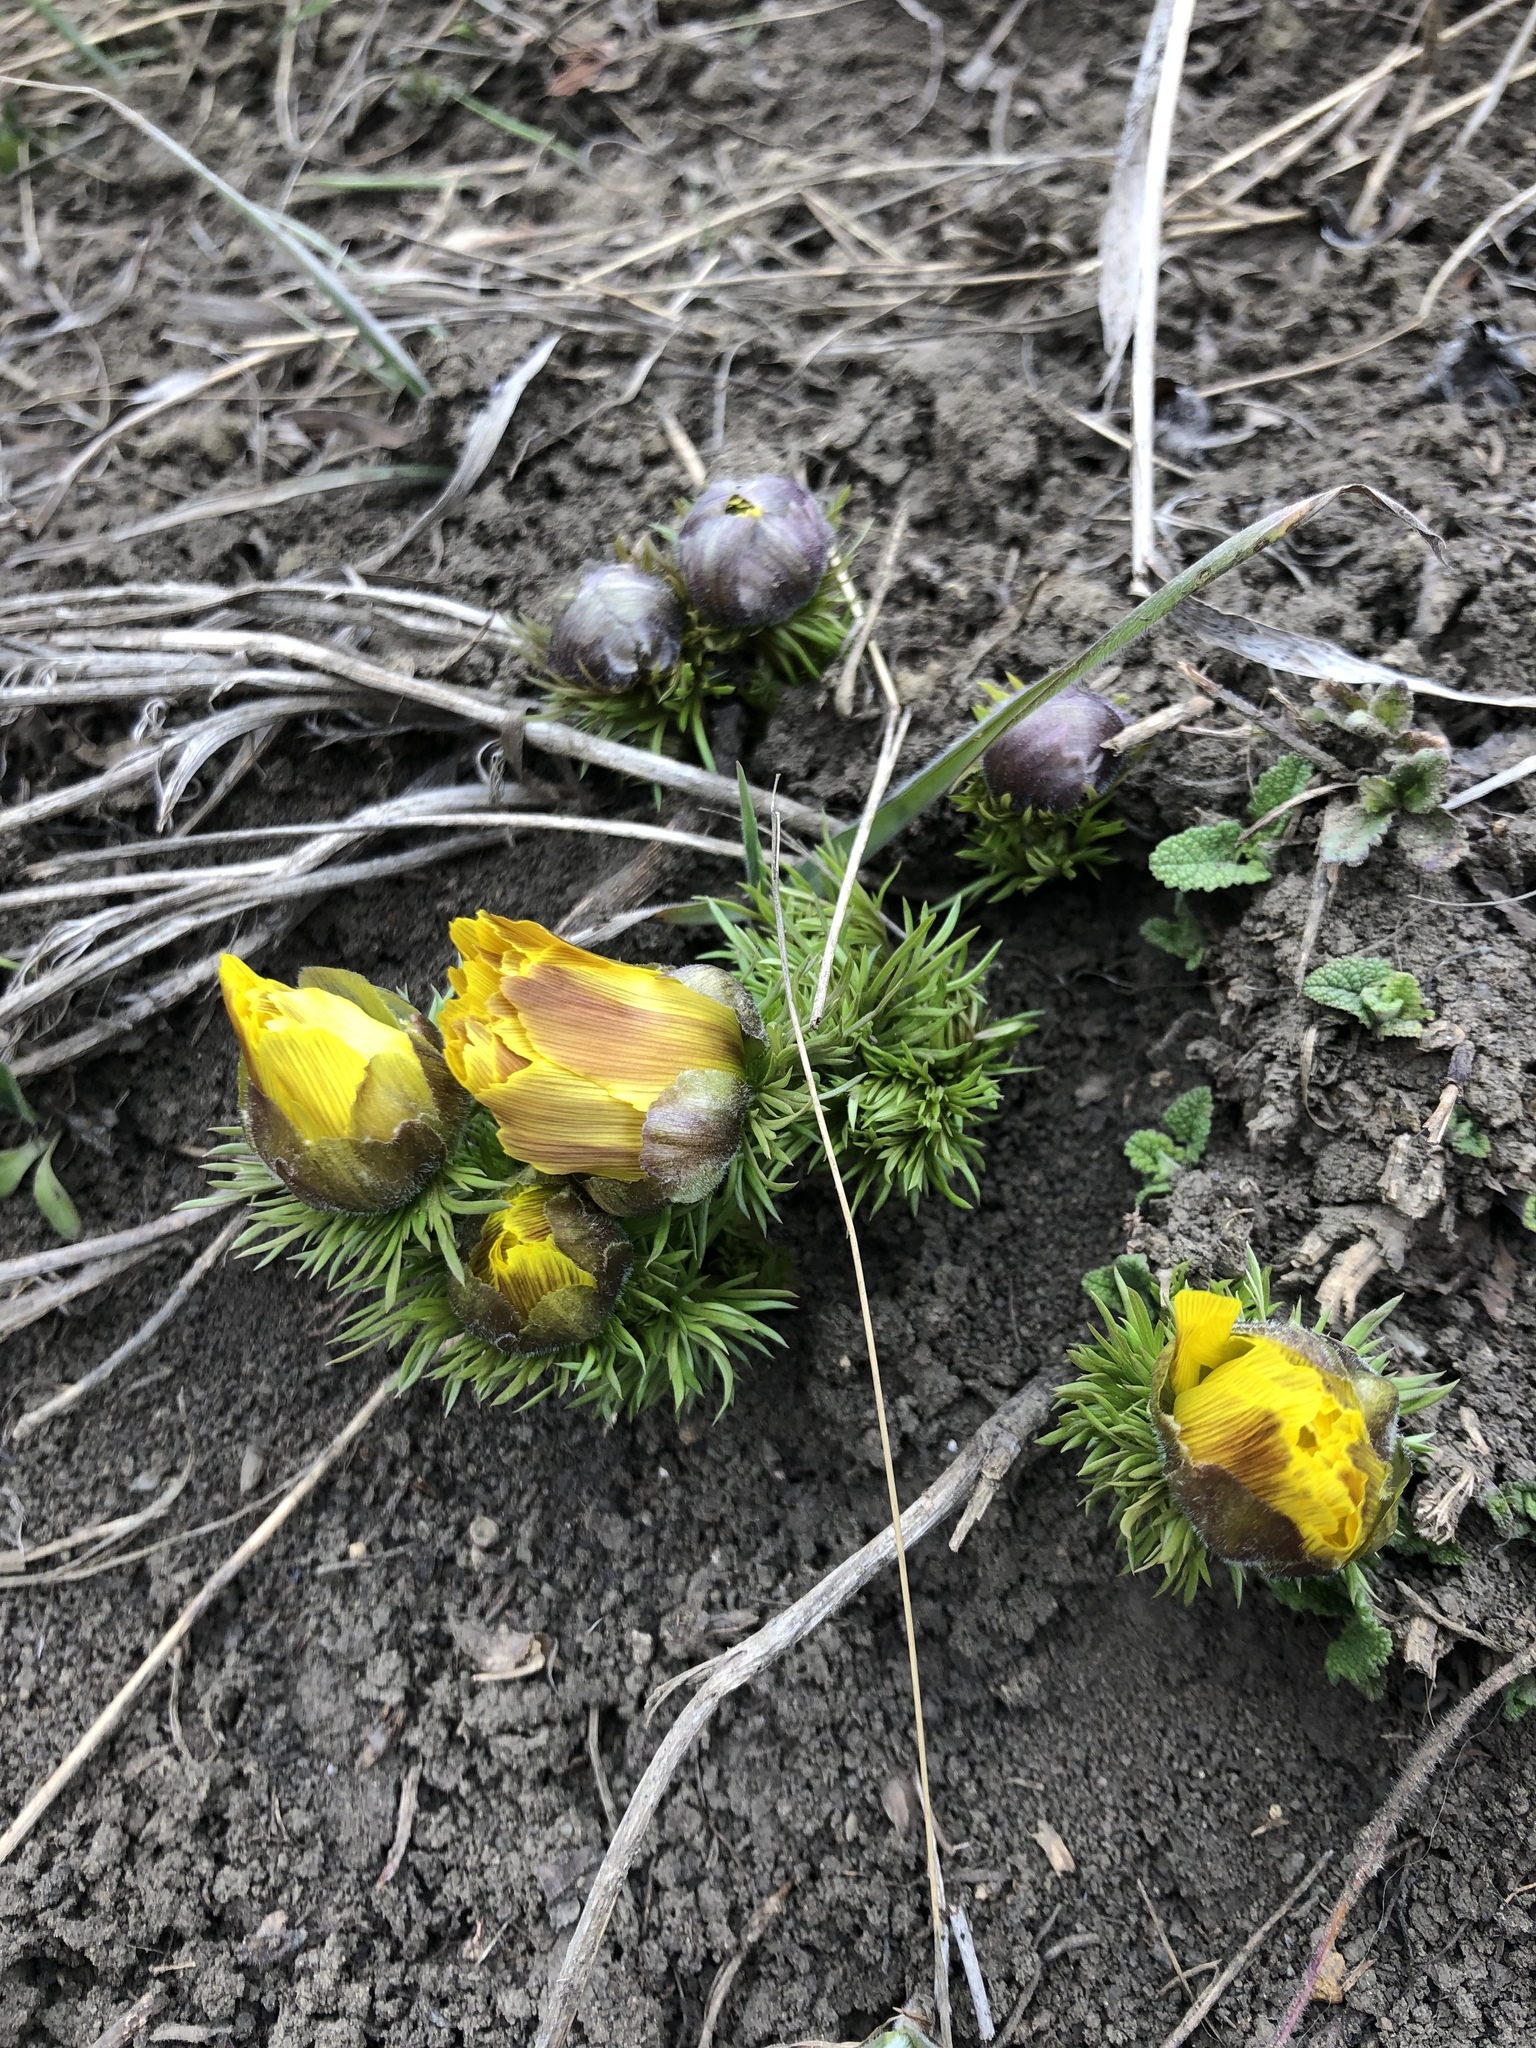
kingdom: Plantae
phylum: Tracheophyta
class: Magnoliopsida
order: Ranunculales
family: Ranunculaceae
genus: Adonis
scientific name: Adonis vernalis
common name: Yellow pheasants-eye
